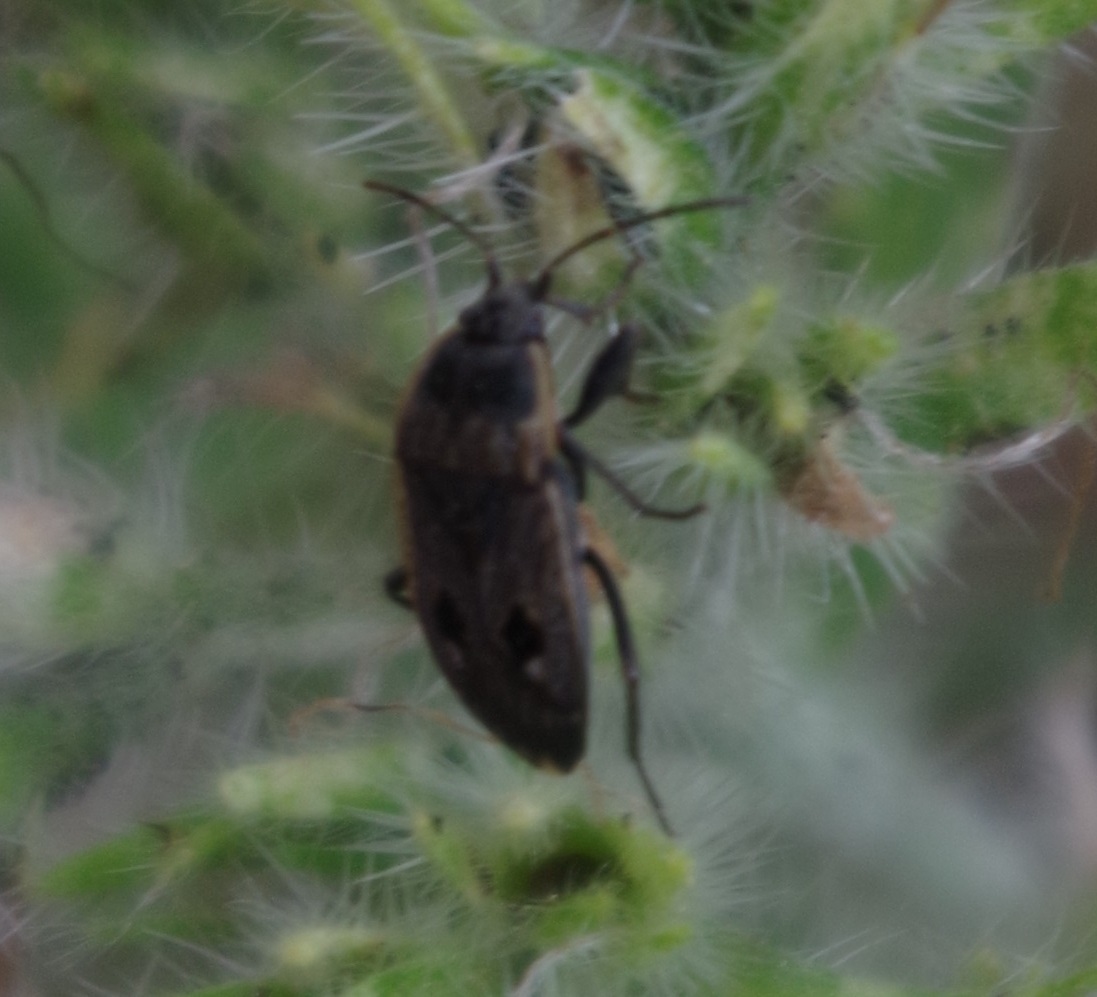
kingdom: Animalia
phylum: Arthropoda
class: Insecta
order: Hemiptera
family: Rhyparochromidae
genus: Graptopeltus
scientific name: Graptopeltus lynceus
